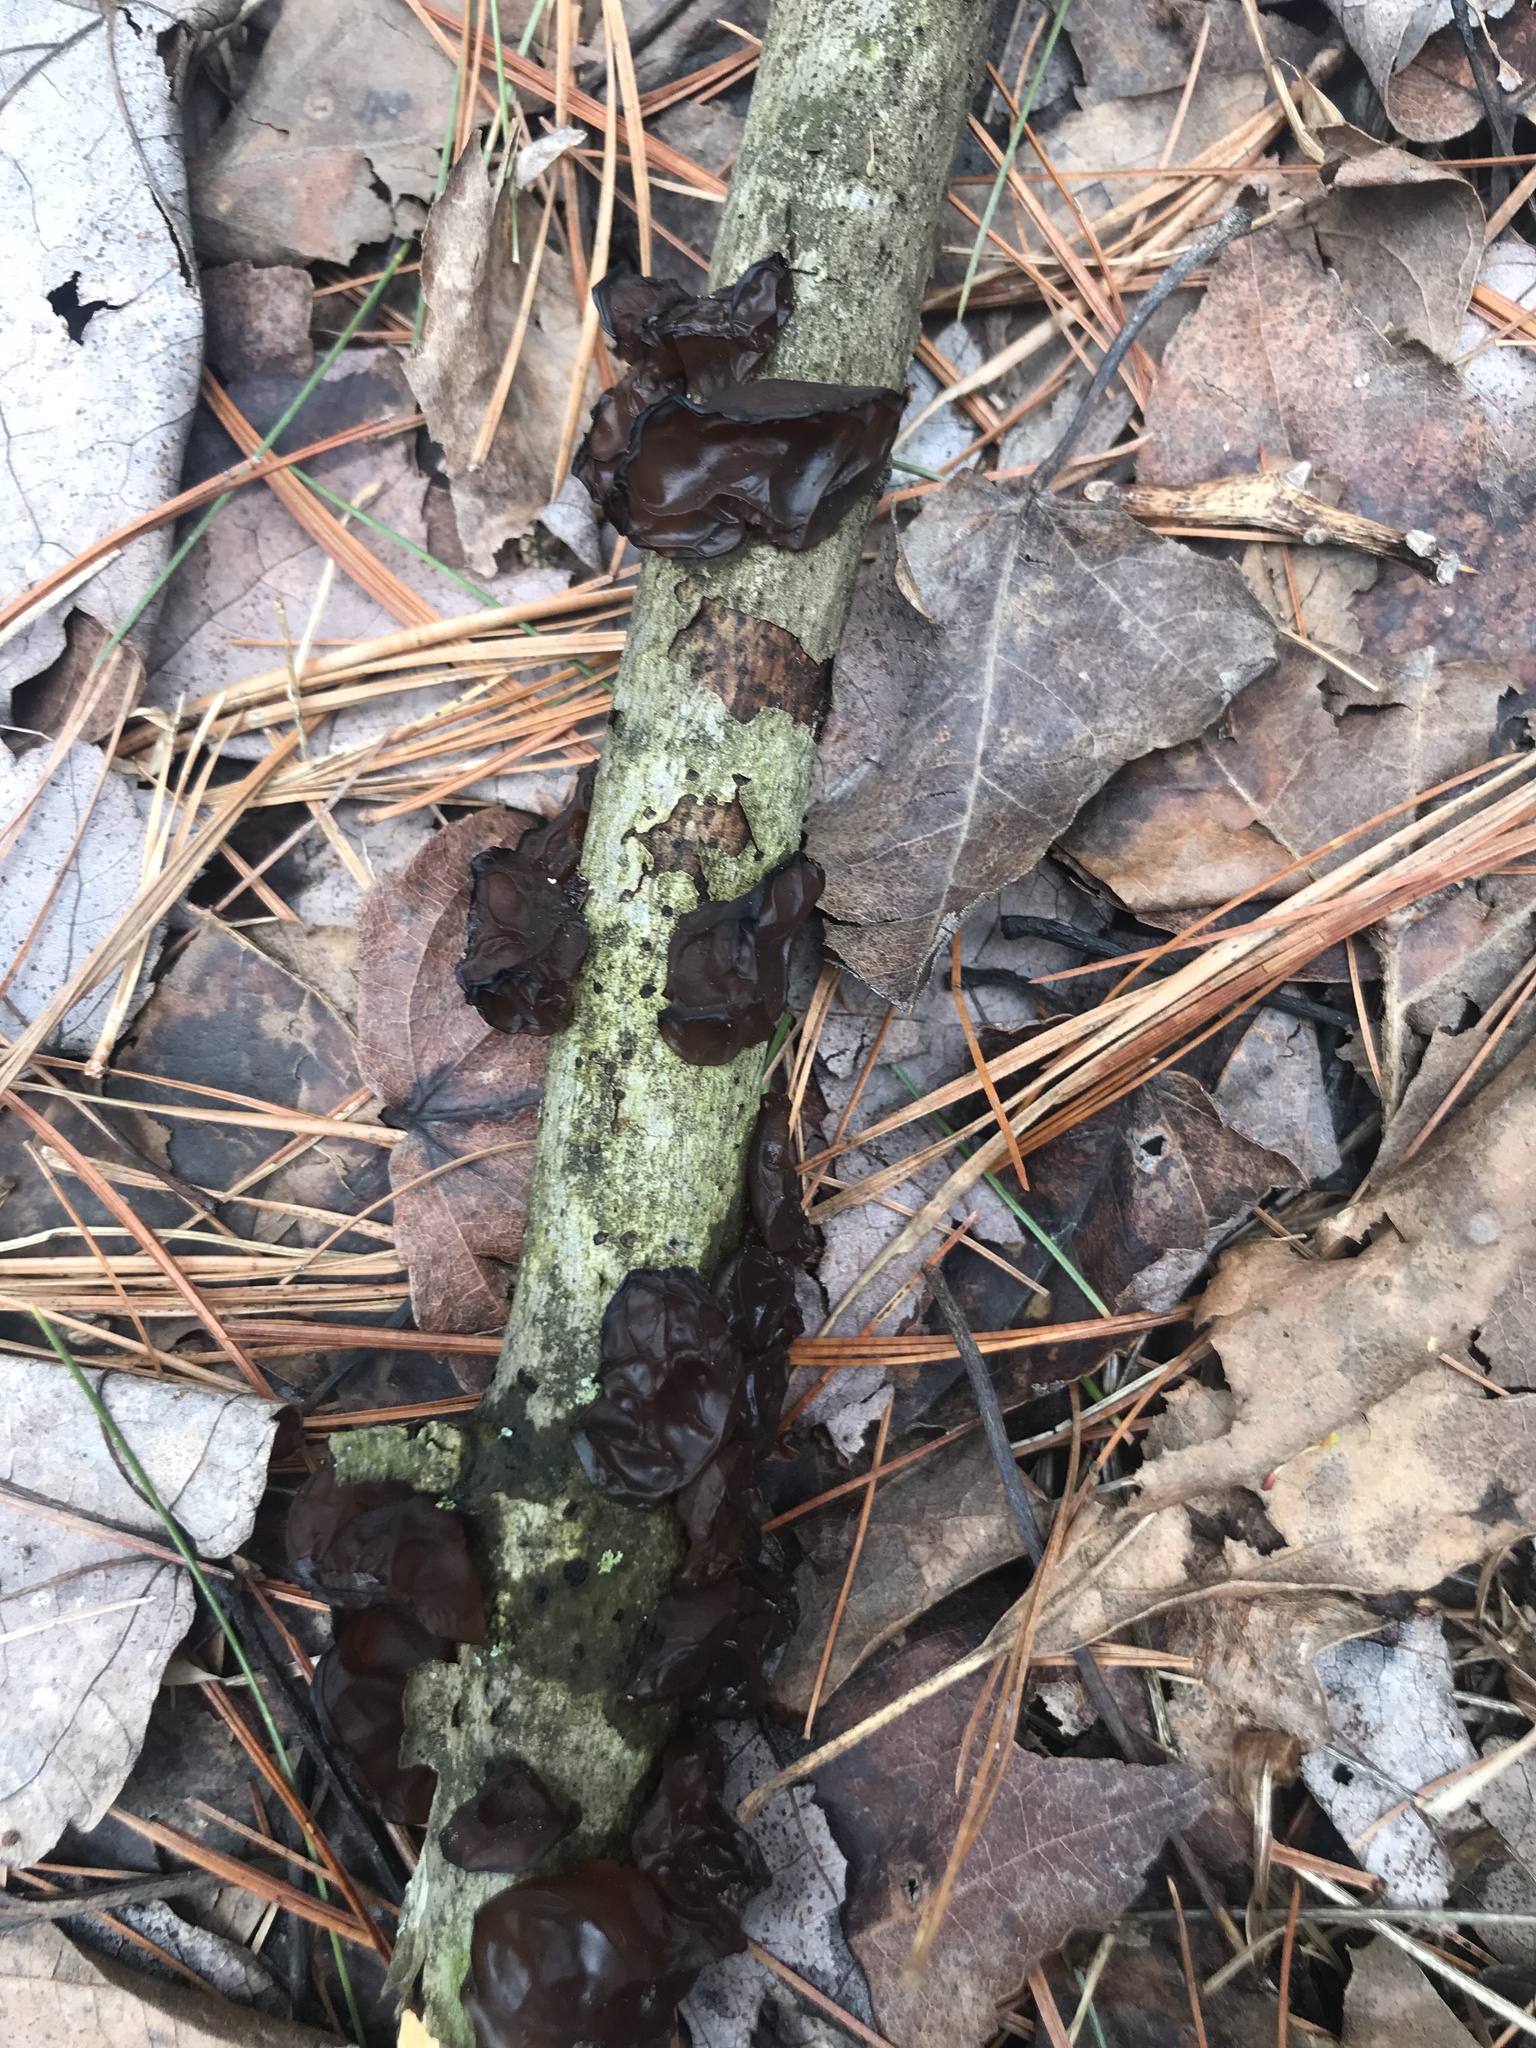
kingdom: Fungi
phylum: Basidiomycota
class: Agaricomycetes
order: Auriculariales
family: Auriculariaceae
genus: Exidia
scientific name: Exidia
